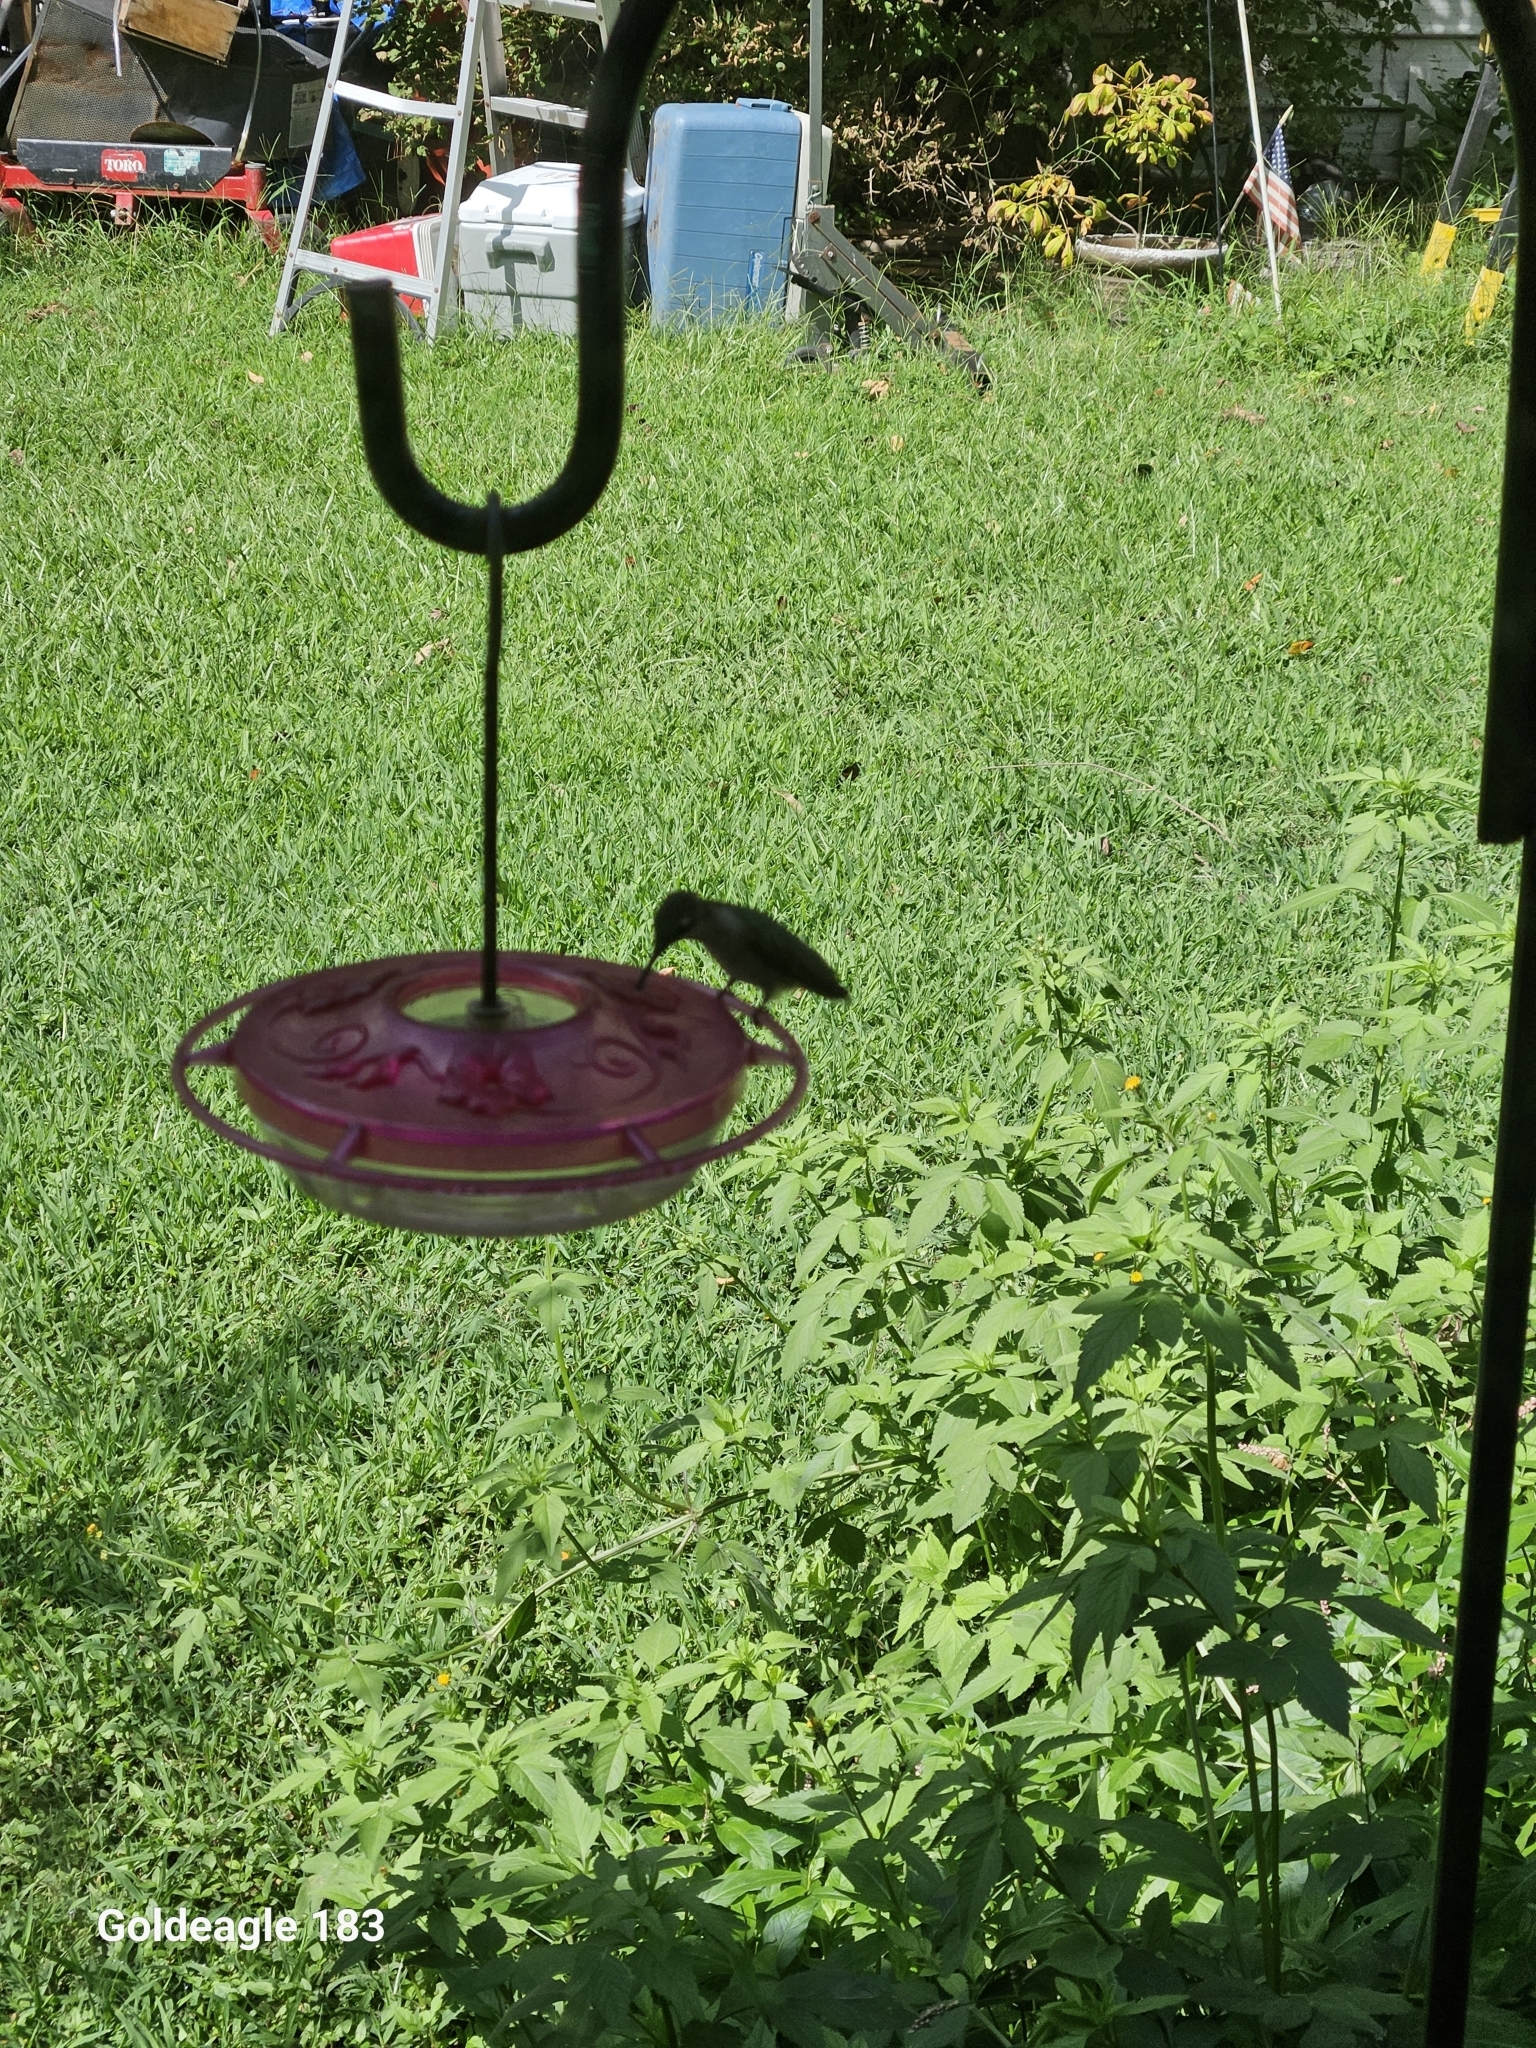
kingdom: Animalia
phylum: Chordata
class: Aves
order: Apodiformes
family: Trochilidae
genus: Archilochus
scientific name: Archilochus colubris
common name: Ruby-throated hummingbird
